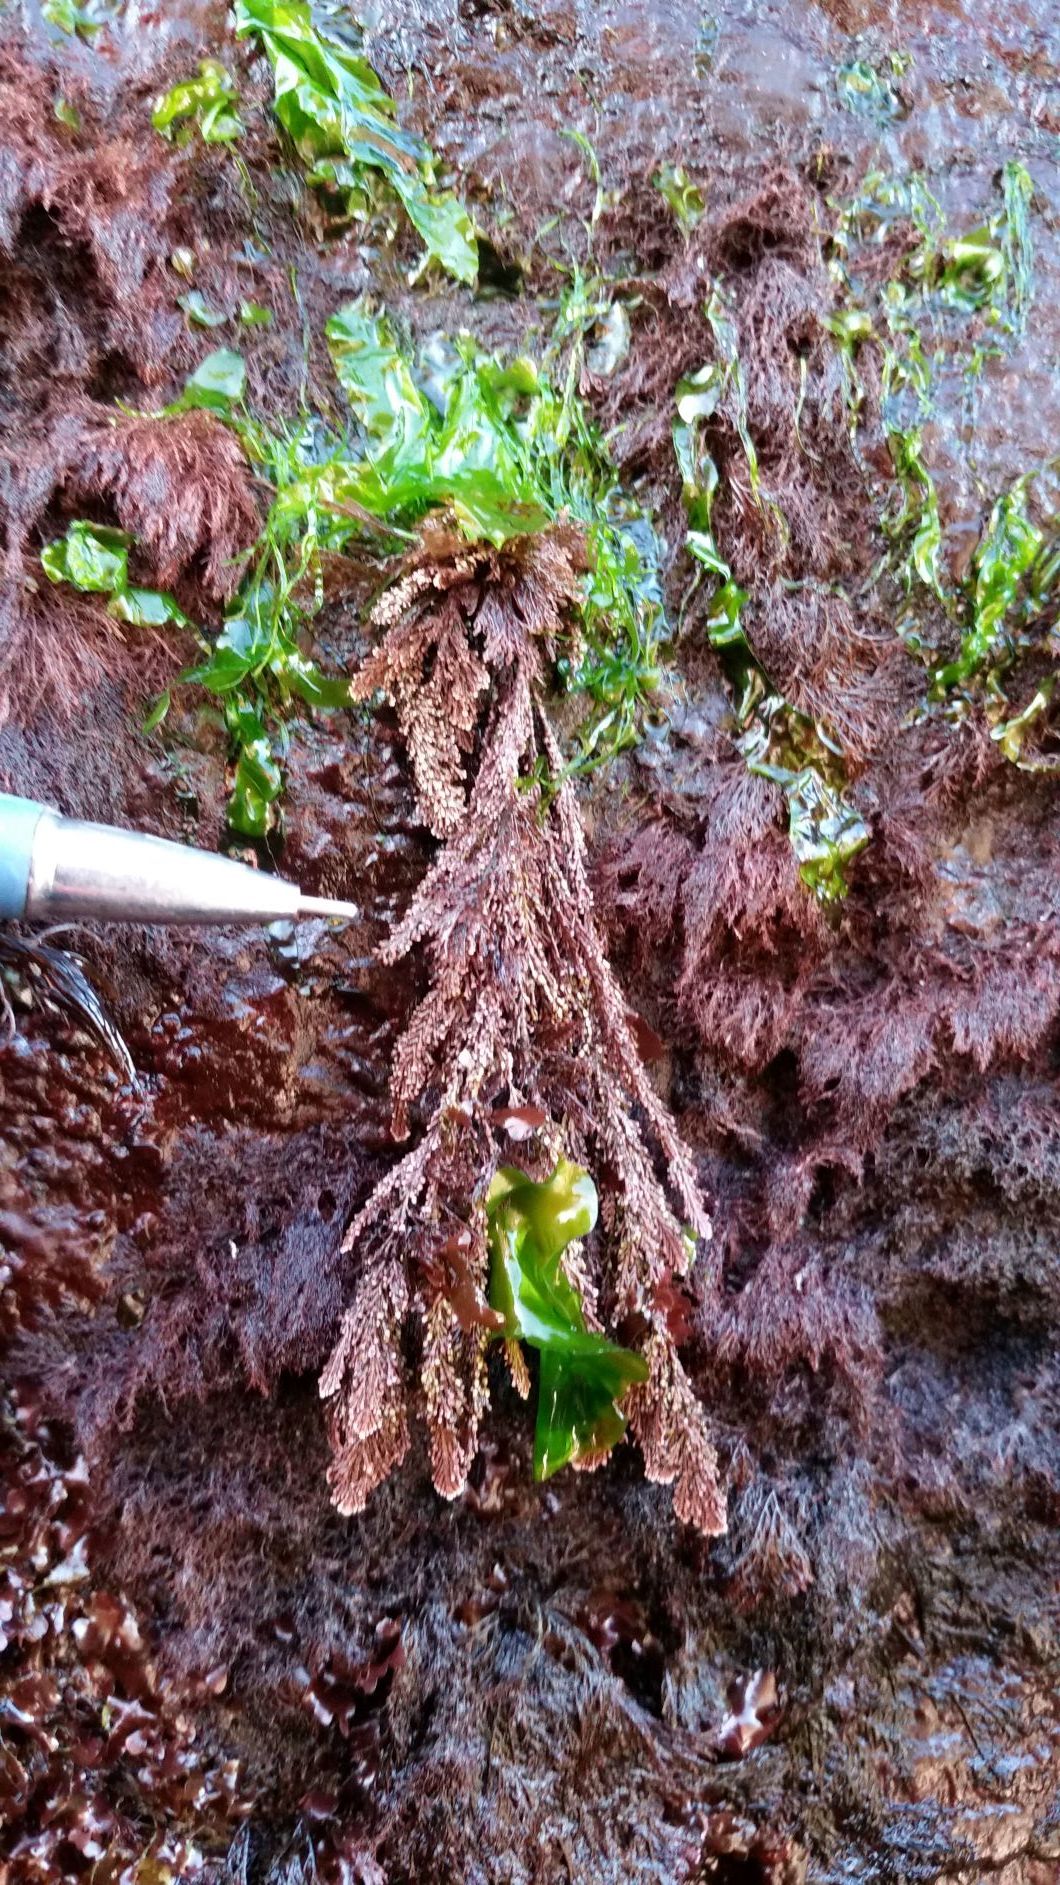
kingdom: Plantae
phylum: Rhodophyta
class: Florideophyceae
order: Corallinales
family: Corallinaceae
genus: Corallina
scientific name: Corallina vancouveriensis
